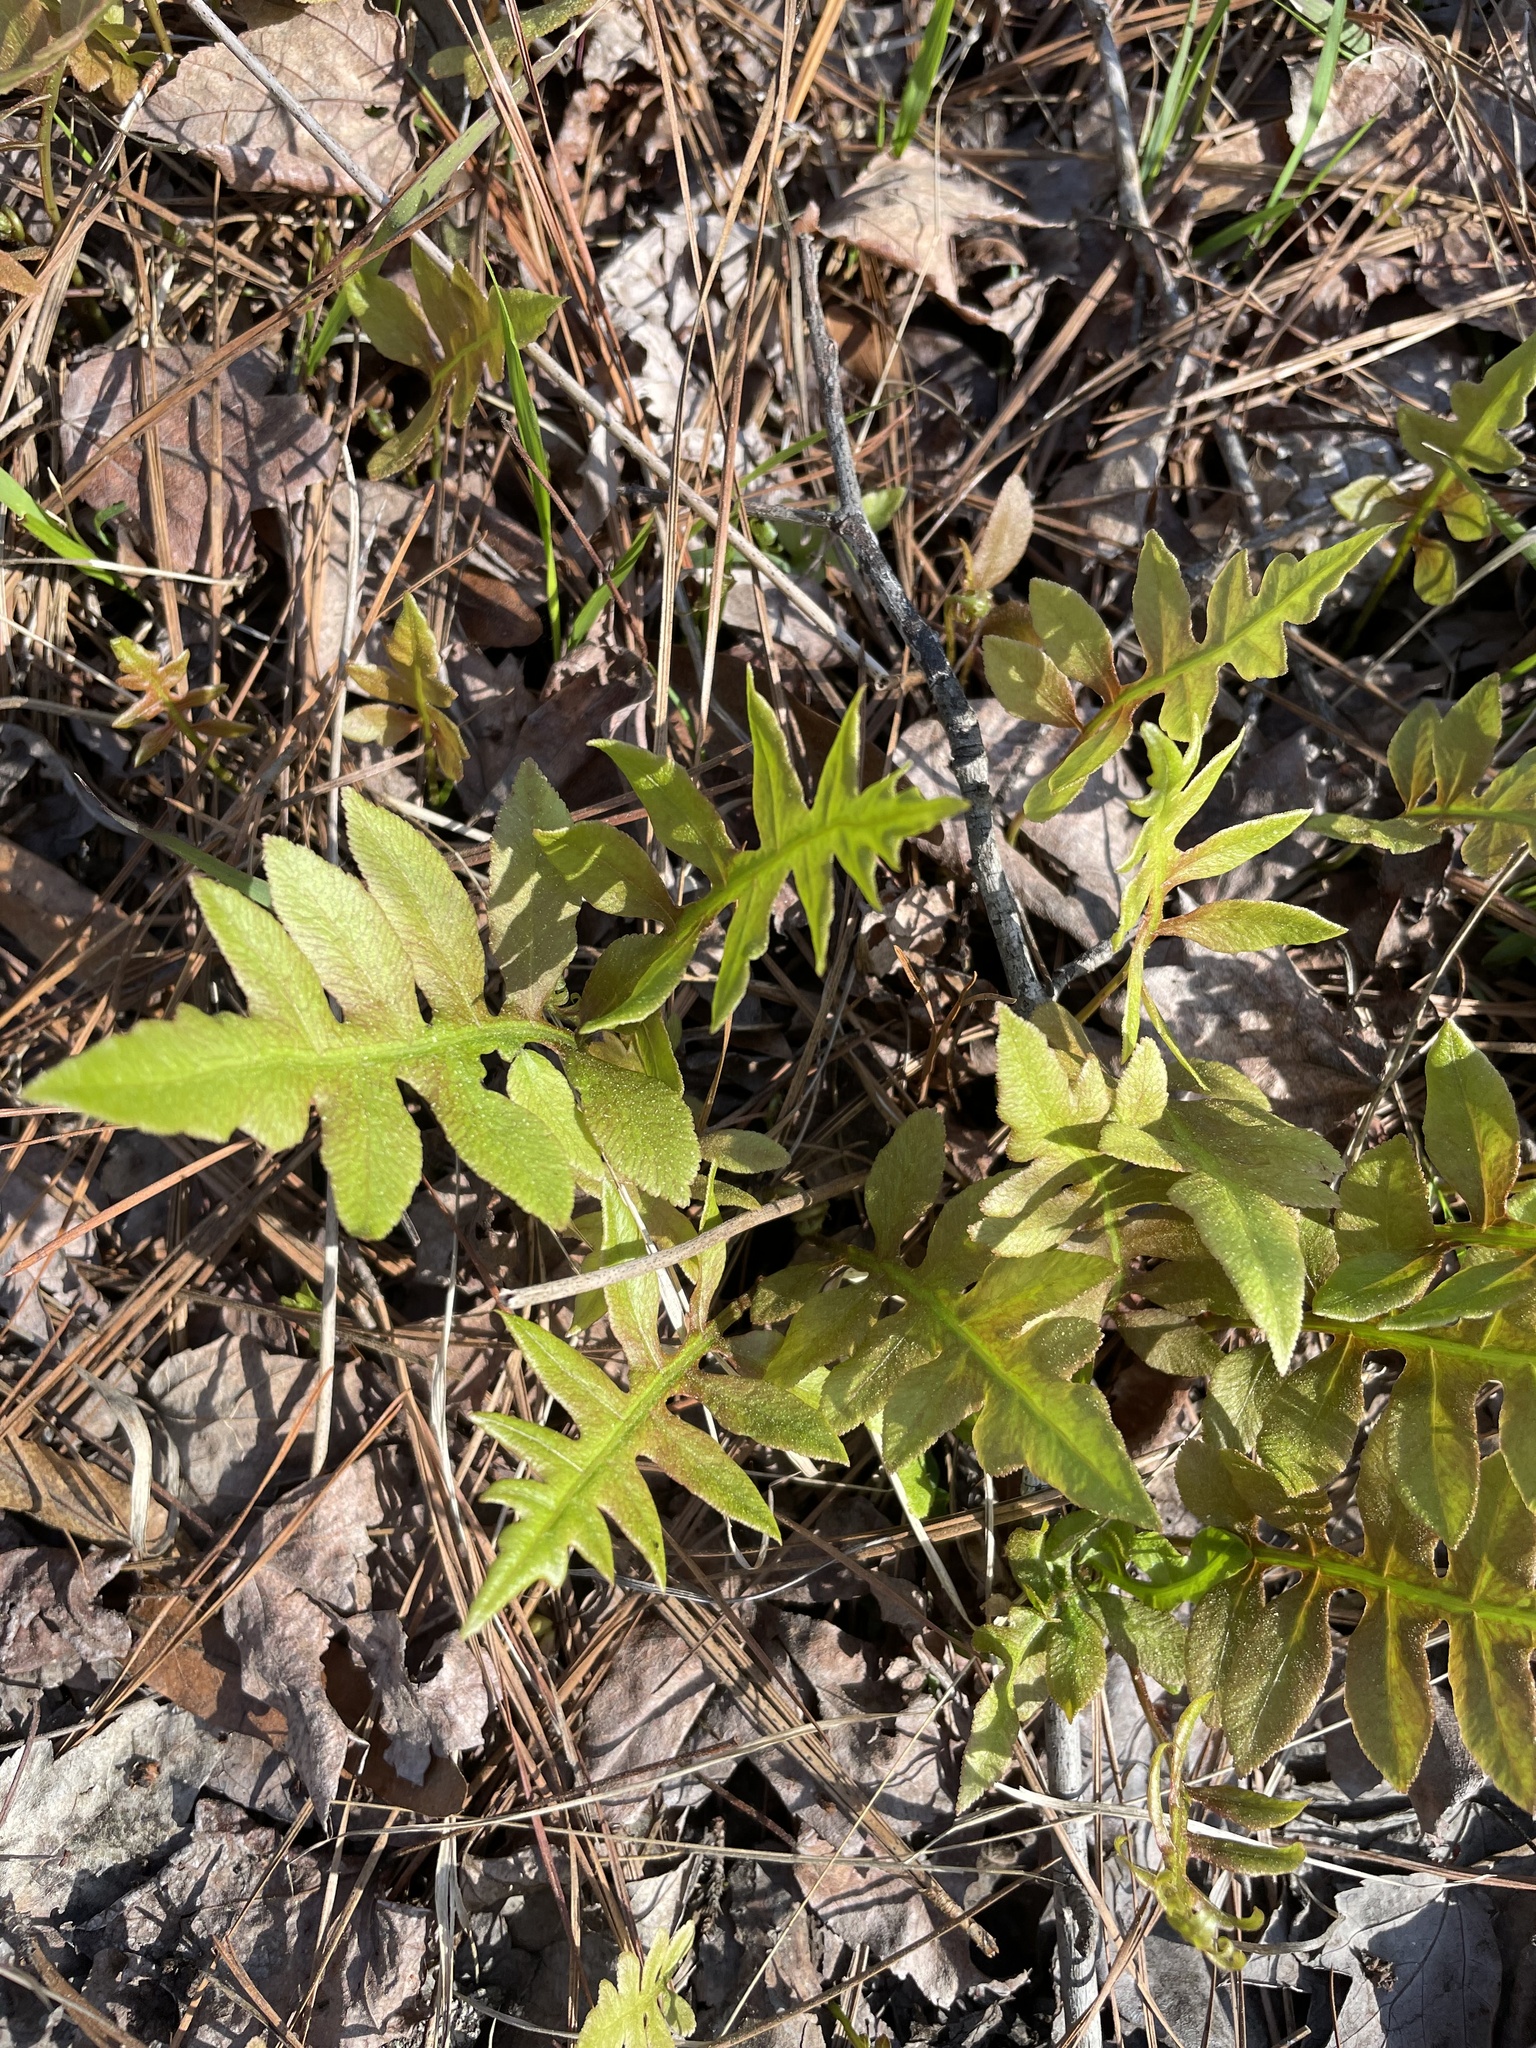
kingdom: Plantae
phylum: Tracheophyta
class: Polypodiopsida
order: Polypodiales
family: Blechnaceae
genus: Lorinseria
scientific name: Lorinseria areolata
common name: Dwarf chain fern
